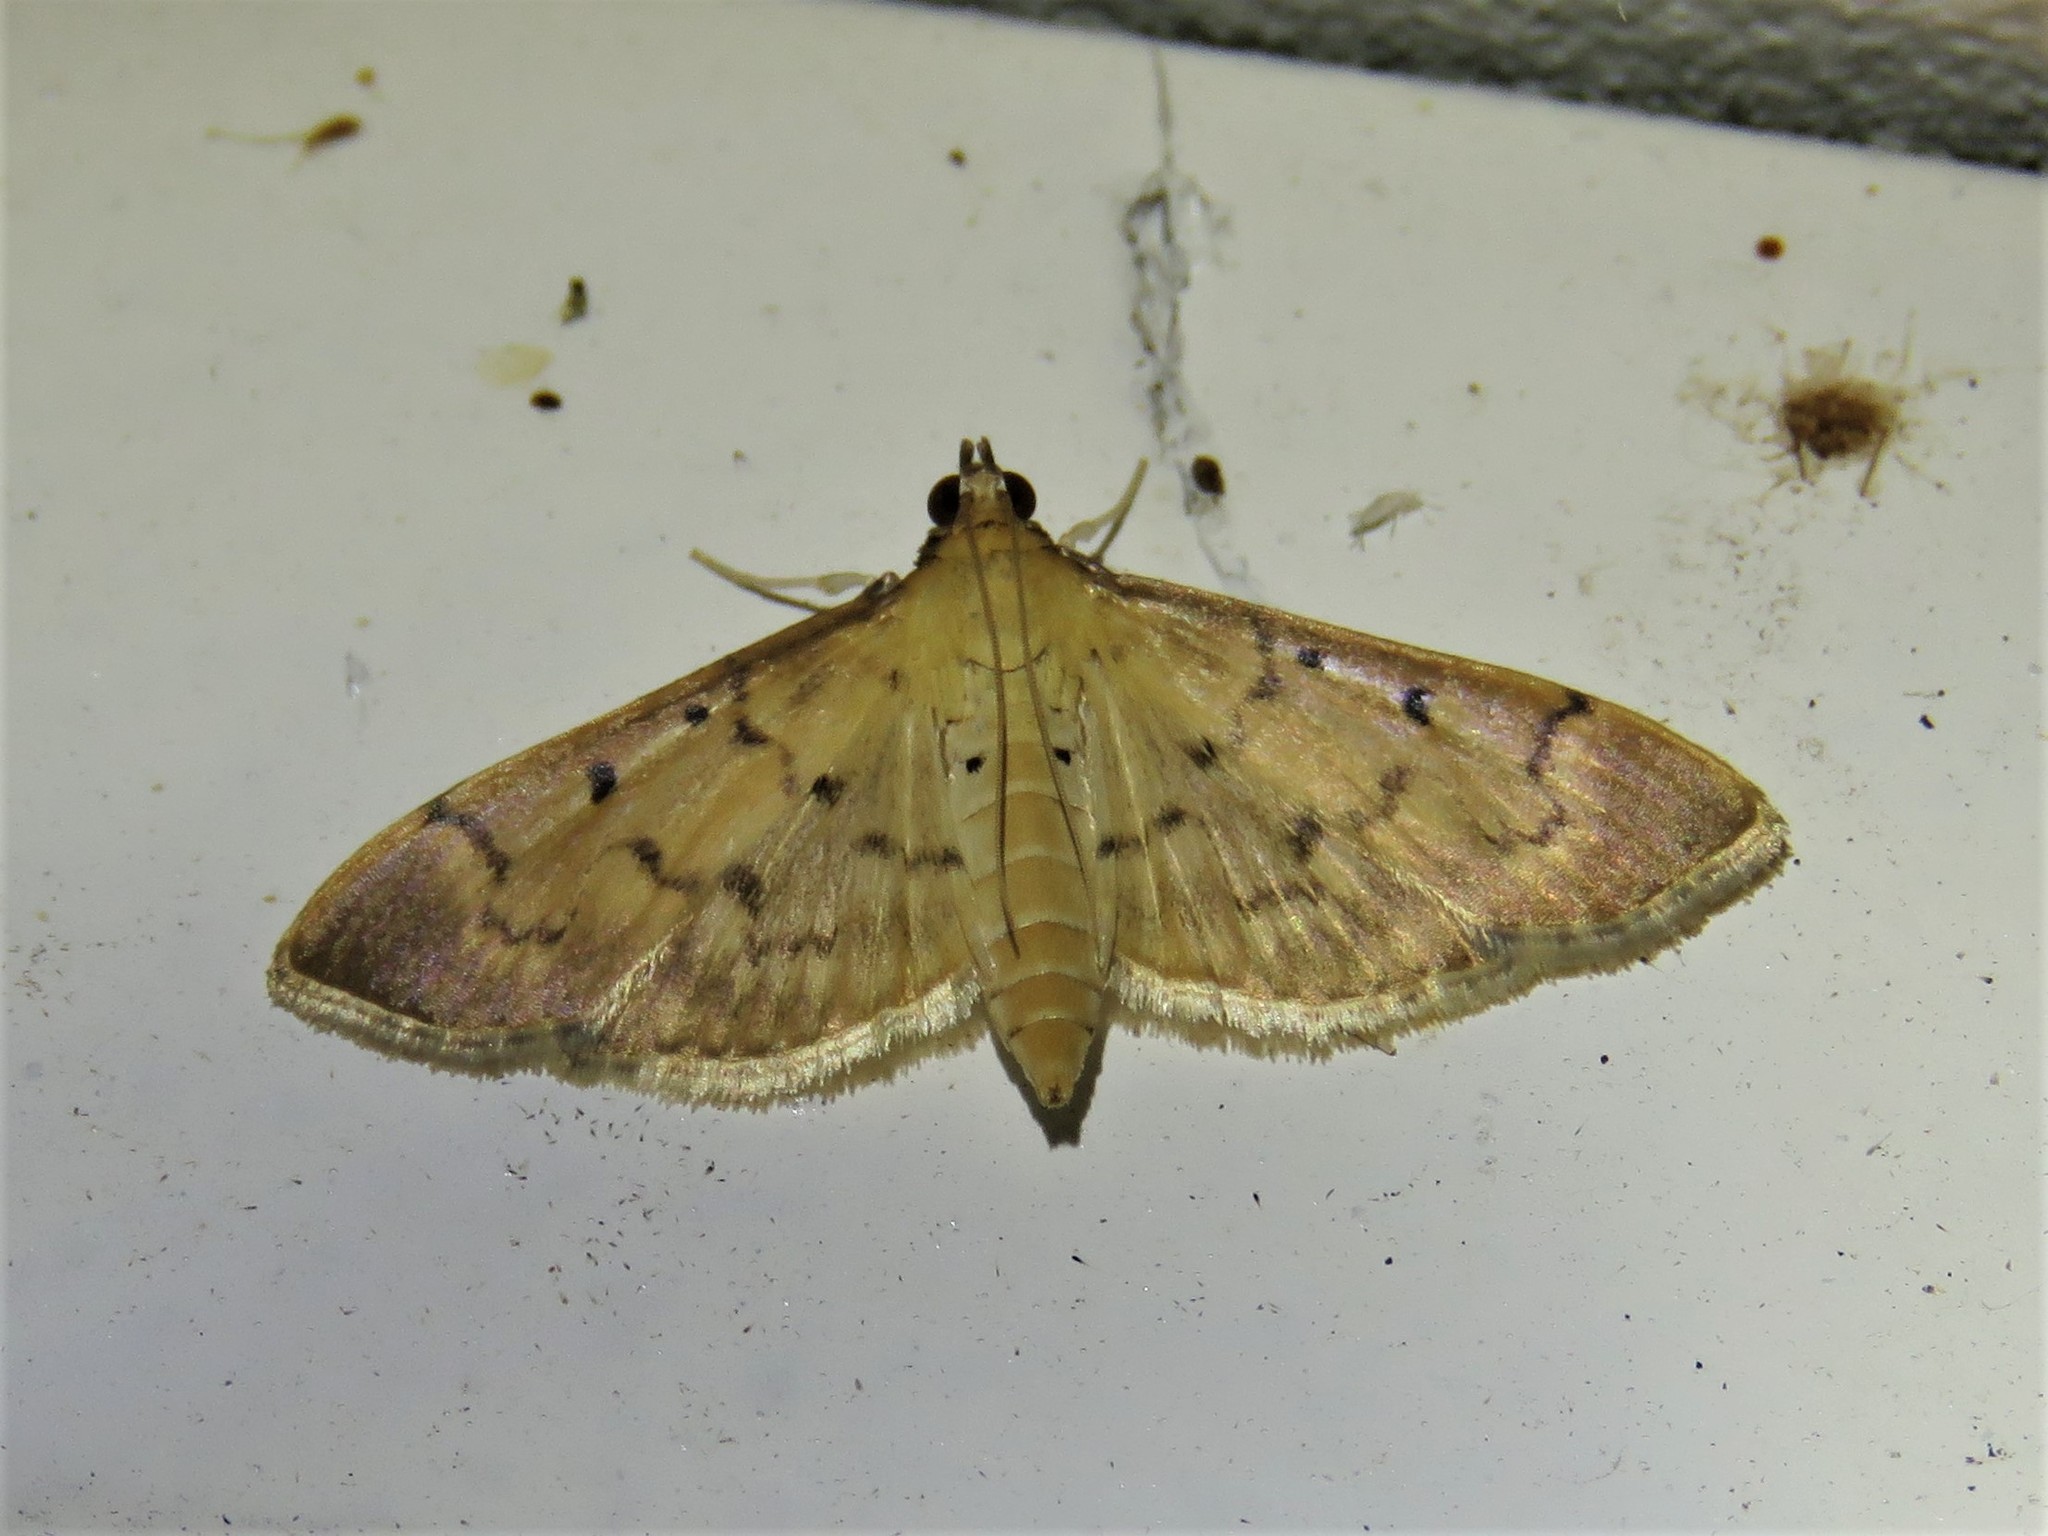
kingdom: Animalia
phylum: Arthropoda
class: Insecta
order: Lepidoptera
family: Crambidae
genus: Herpetogramma
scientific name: Herpetogramma bipunctalis
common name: Southern beet webworm
